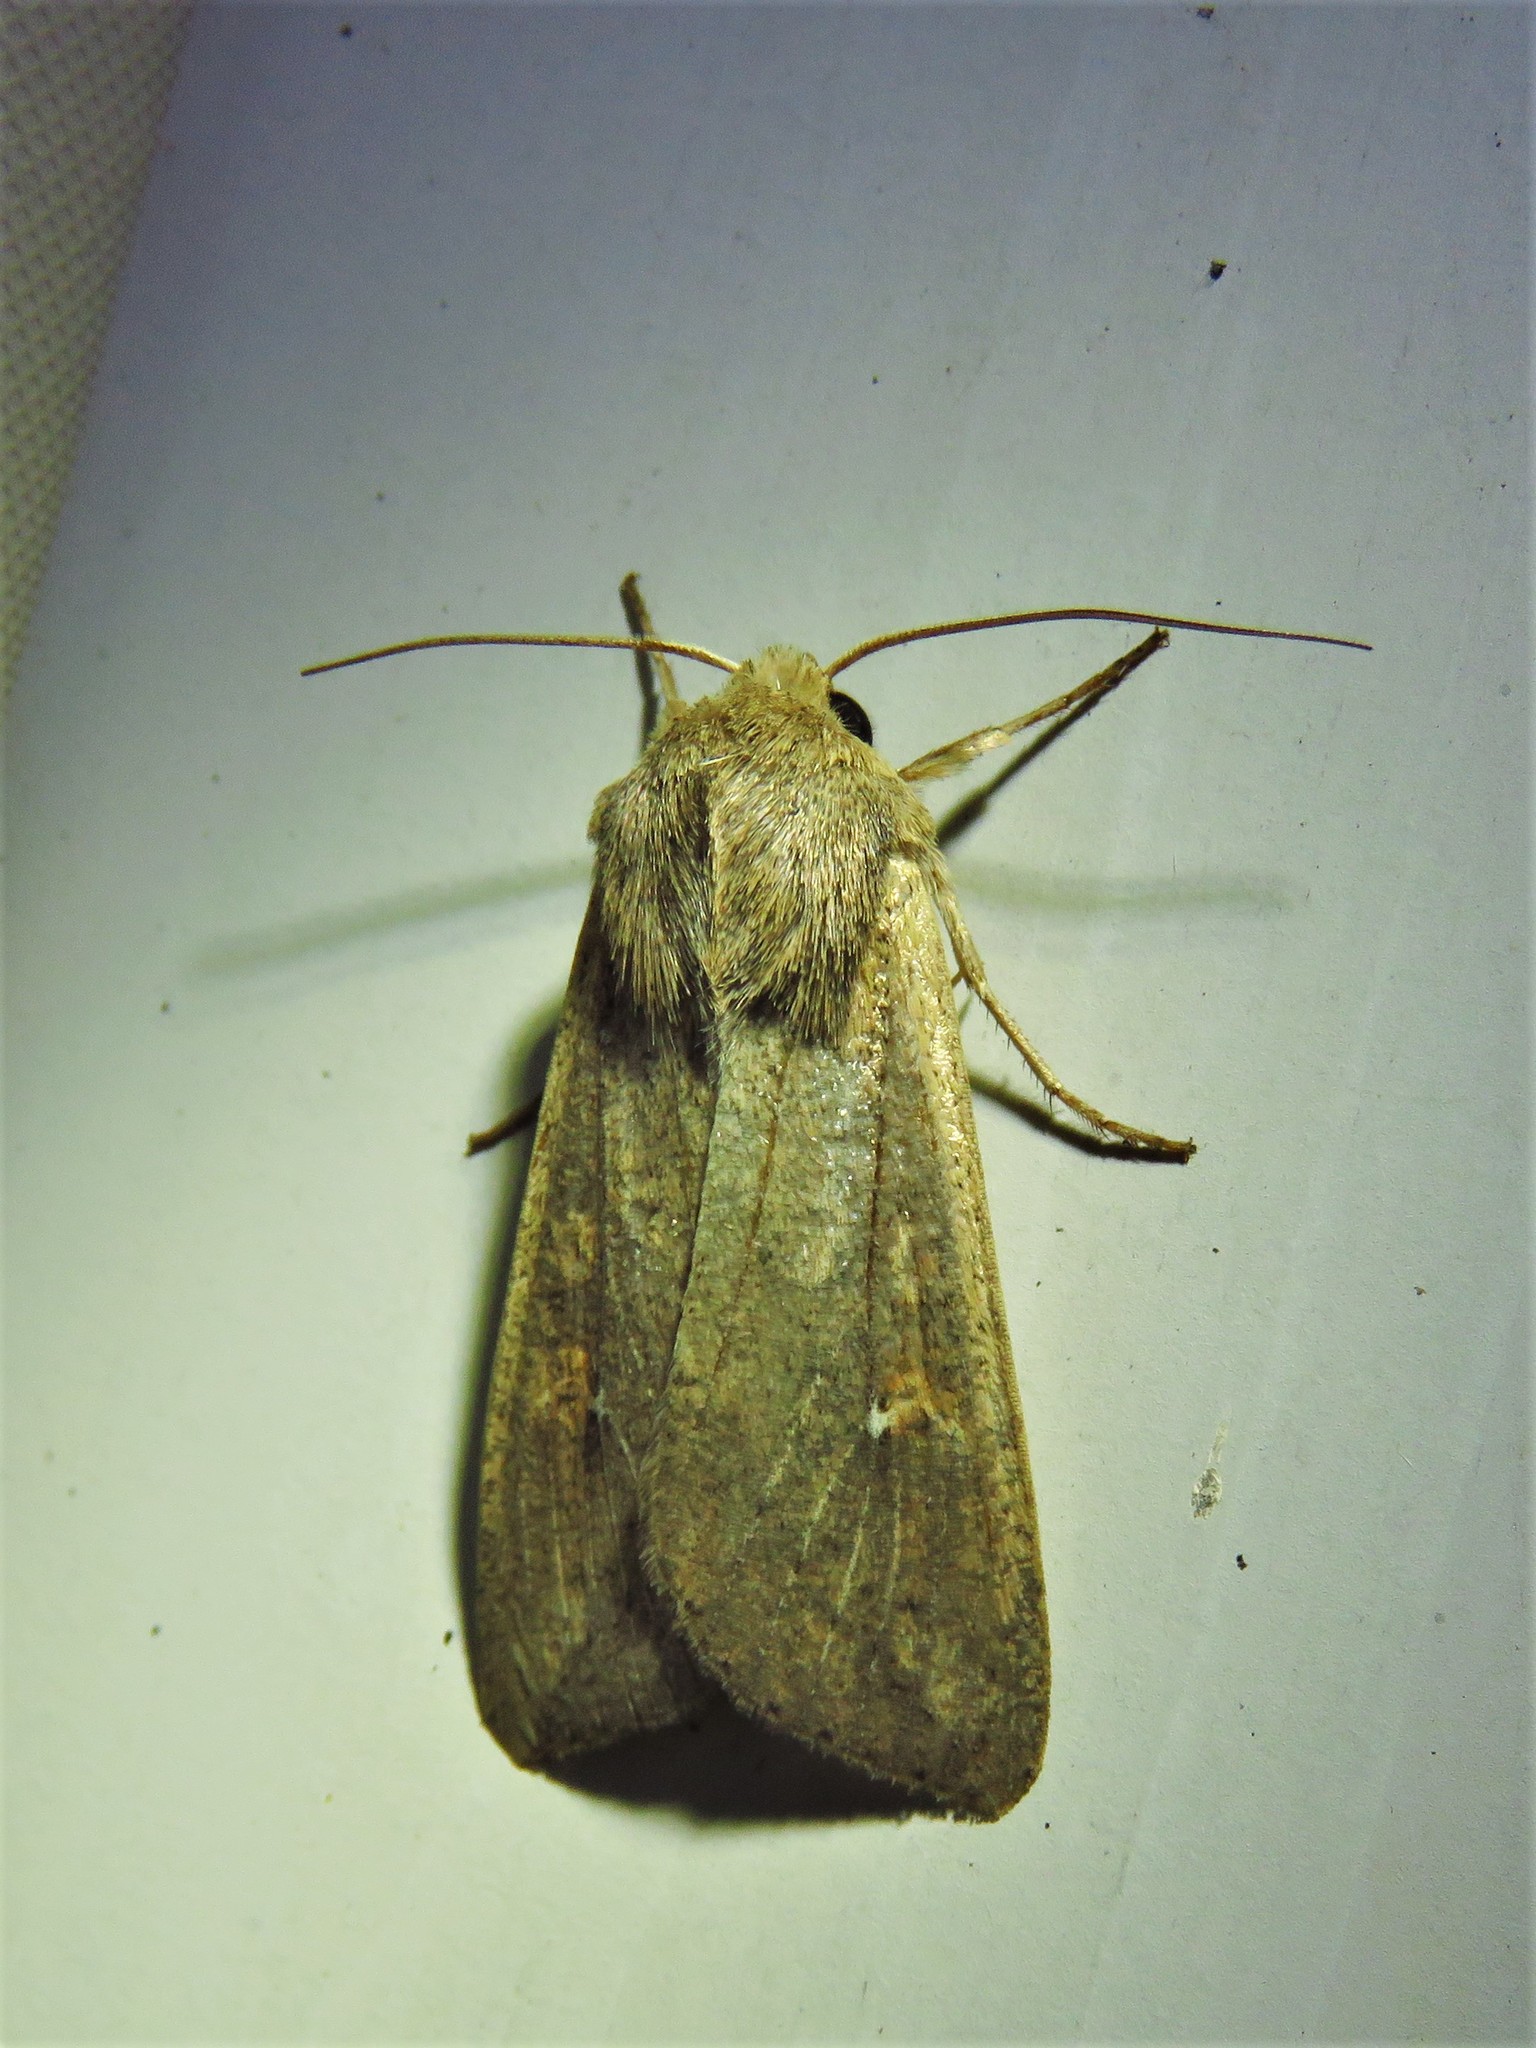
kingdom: Animalia
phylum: Arthropoda
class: Insecta
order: Lepidoptera
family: Noctuidae
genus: Mythimna
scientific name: Mythimna unipuncta
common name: White-speck
